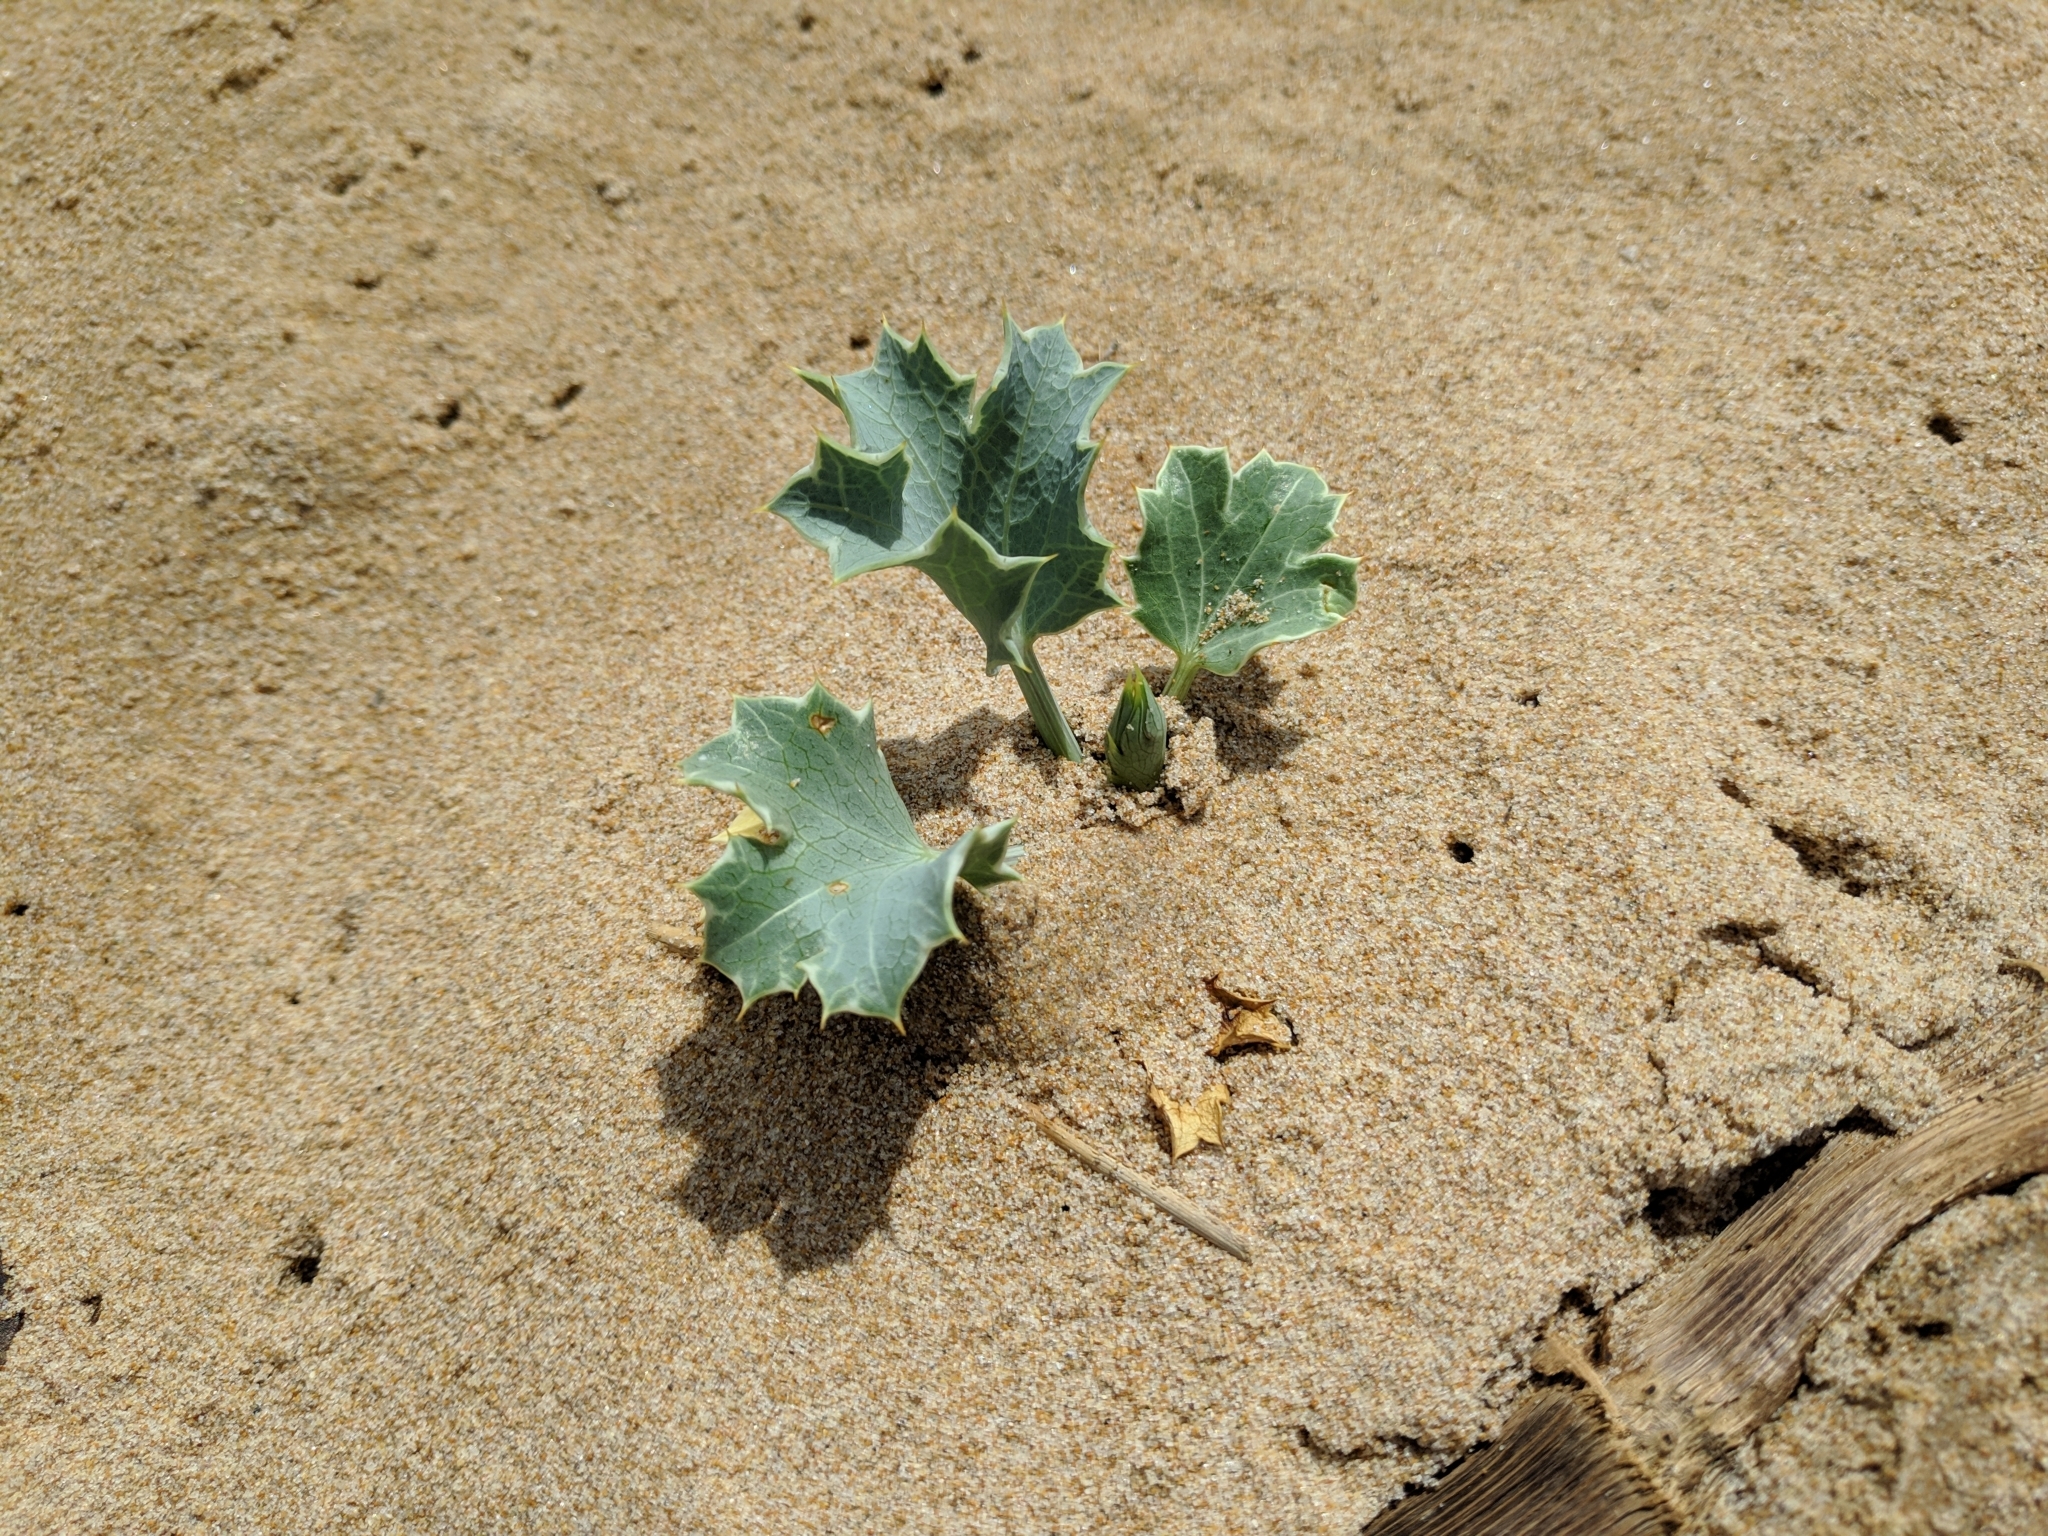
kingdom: Plantae
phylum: Tracheophyta
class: Magnoliopsida
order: Apiales
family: Apiaceae
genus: Eryngium
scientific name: Eryngium maritimum
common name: Sea-holly
